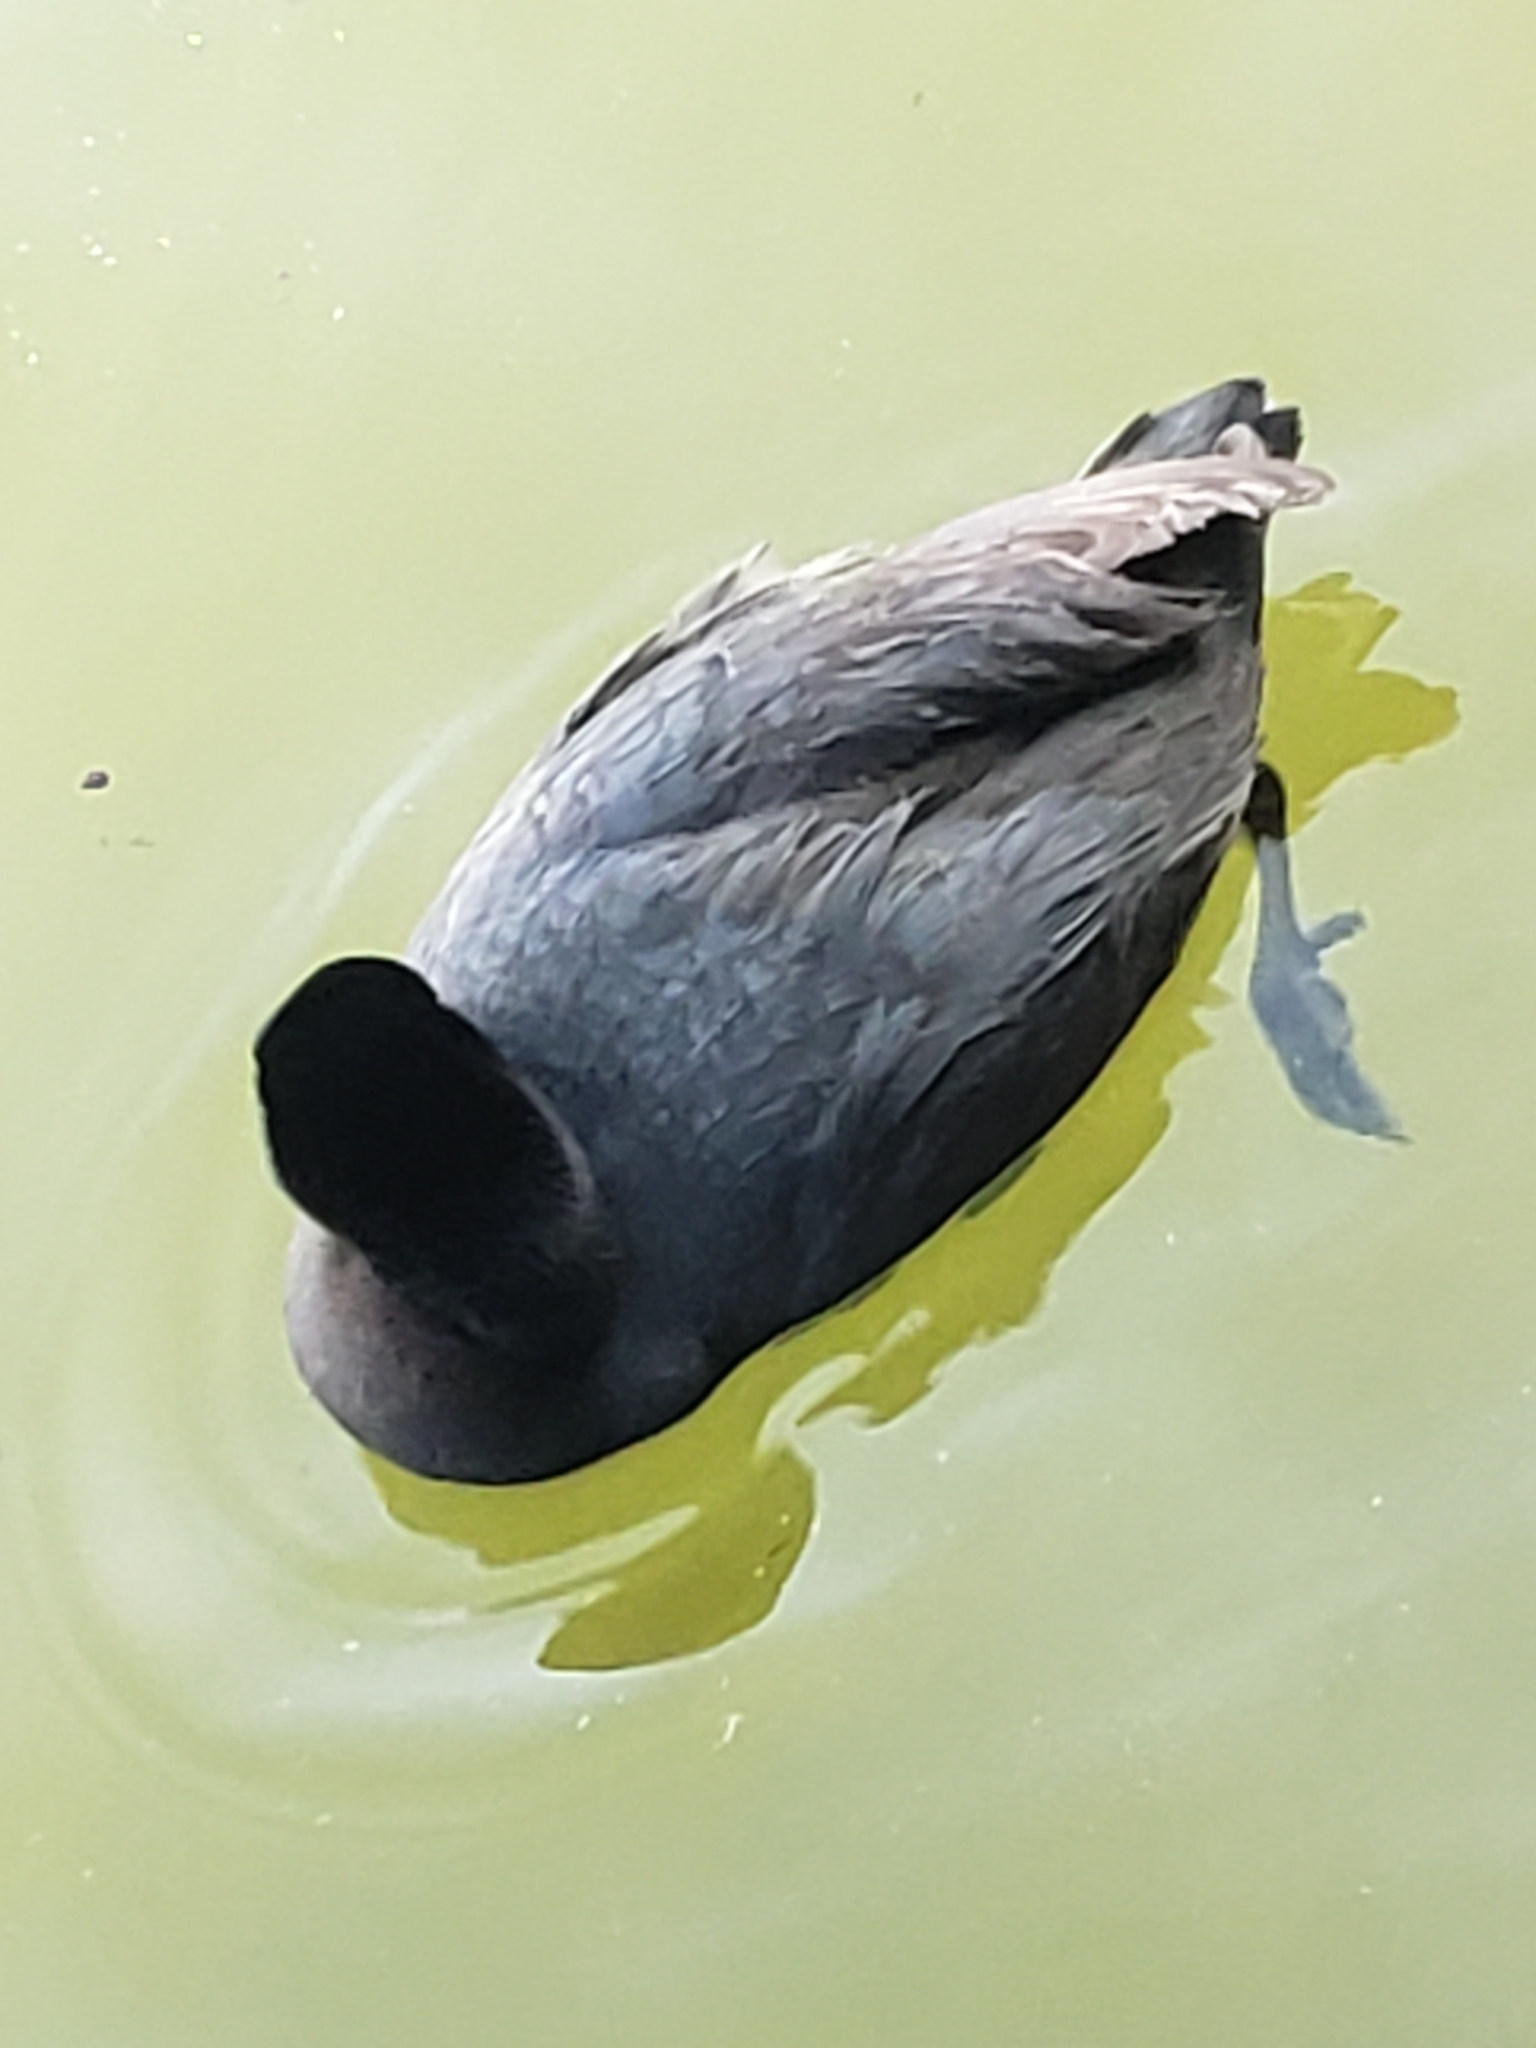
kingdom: Animalia
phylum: Chordata
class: Aves
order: Gruiformes
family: Rallidae
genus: Fulica
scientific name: Fulica americana
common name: American coot
